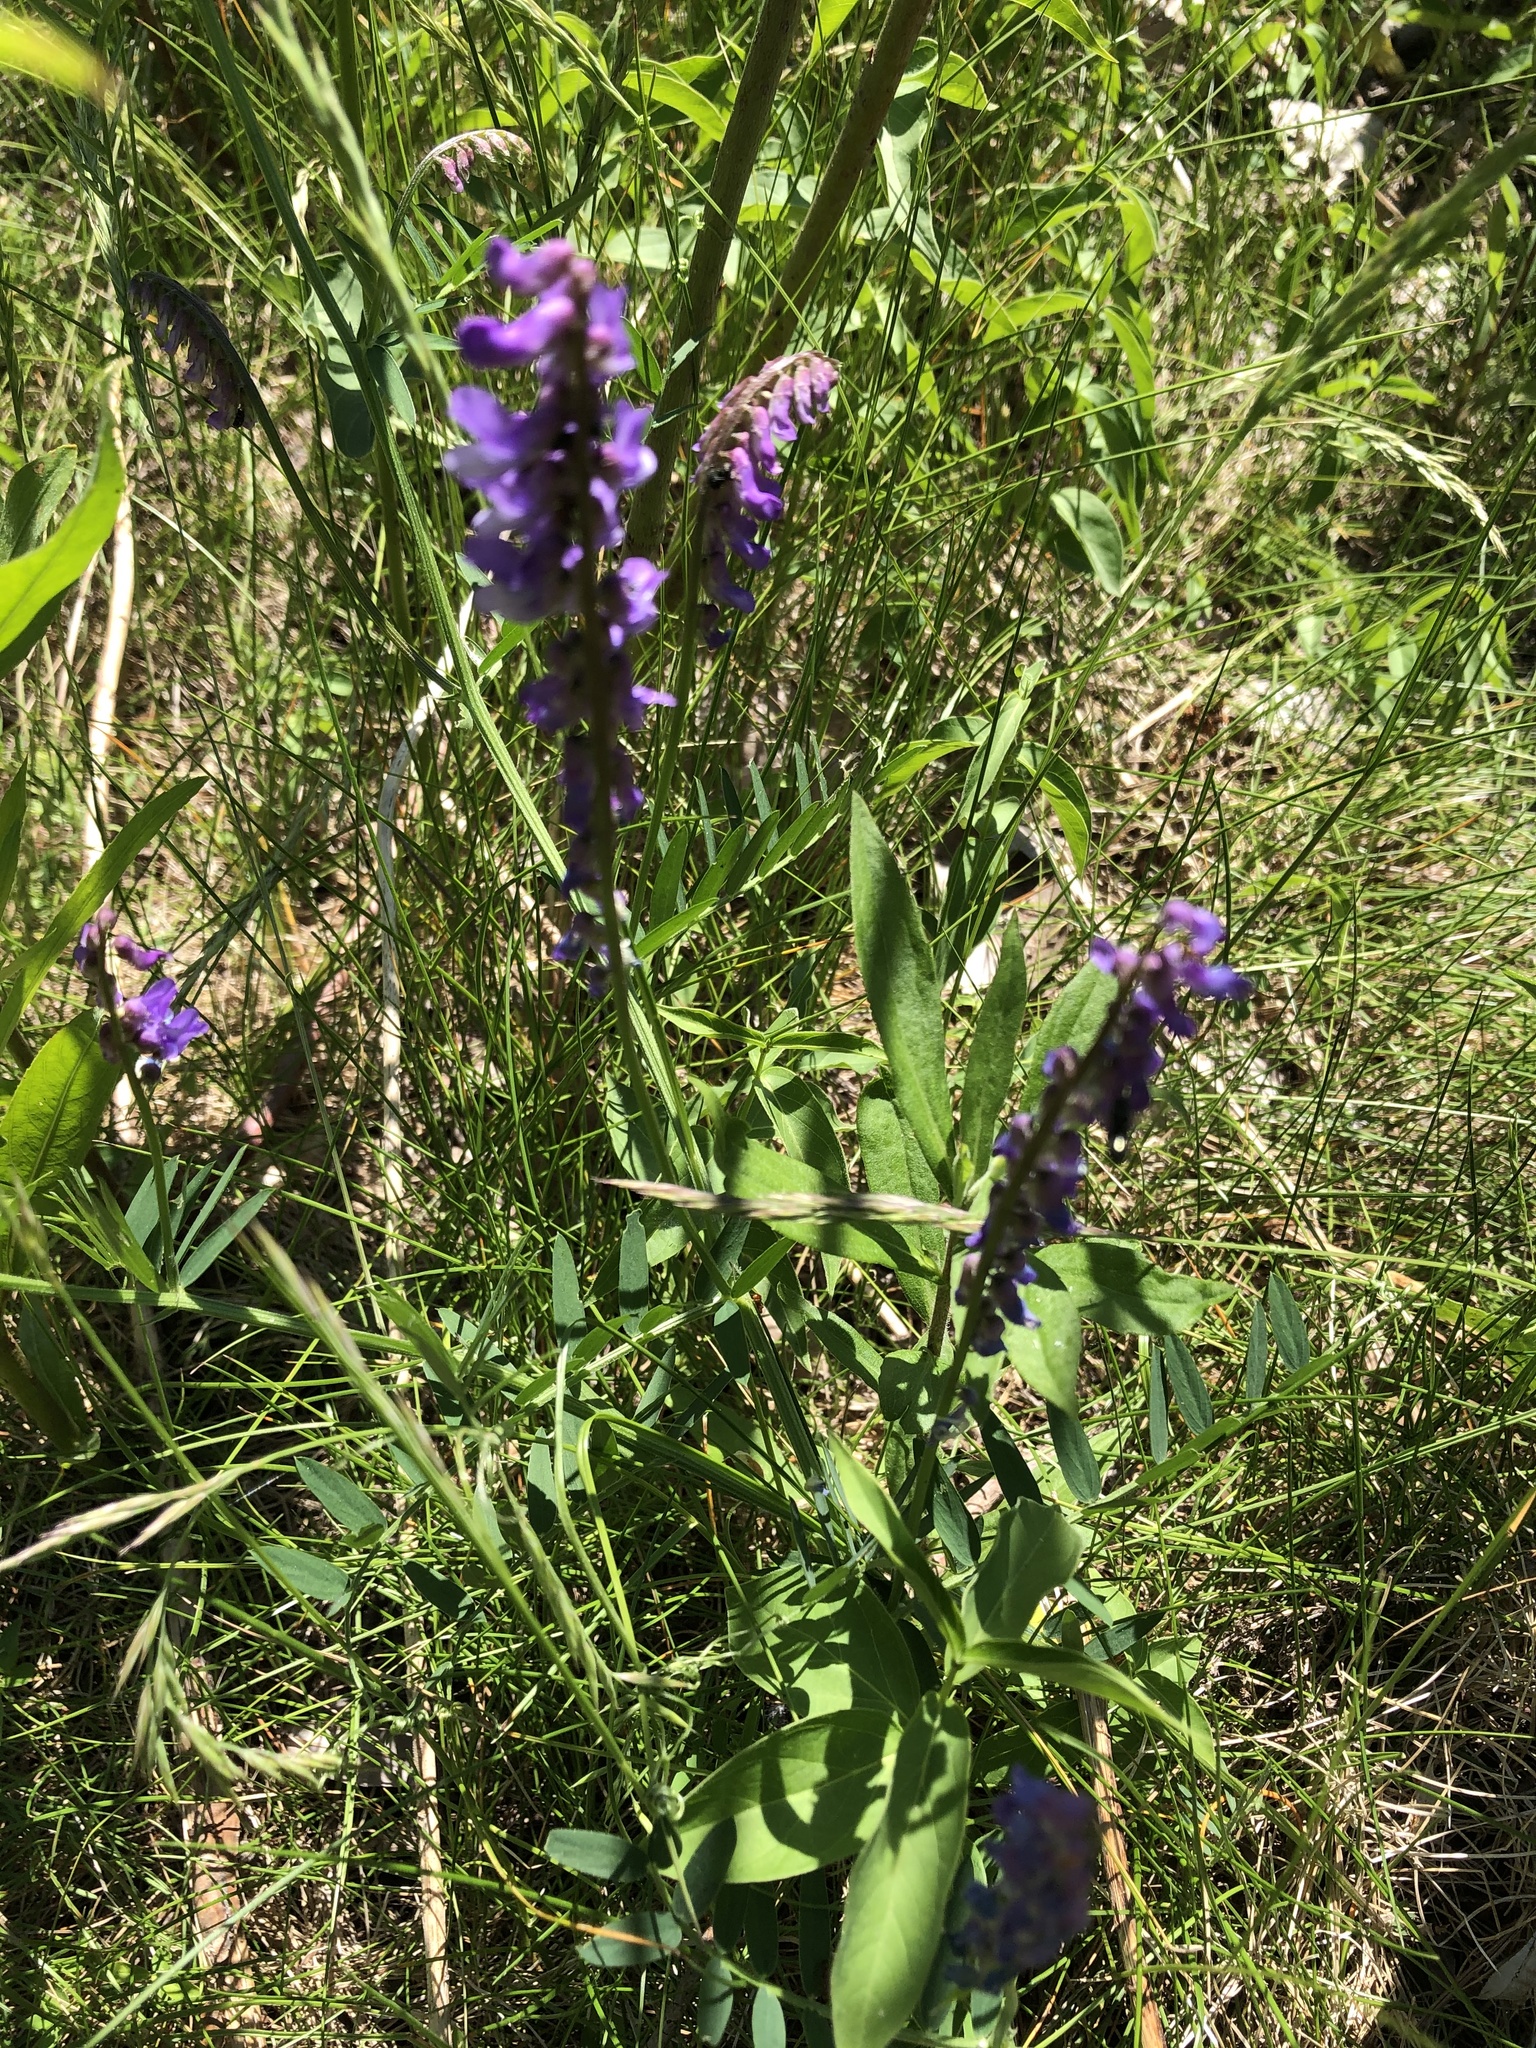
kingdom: Plantae
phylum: Tracheophyta
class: Magnoliopsida
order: Fabales
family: Fabaceae
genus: Vicia
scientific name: Vicia cracca
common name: Bird vetch
